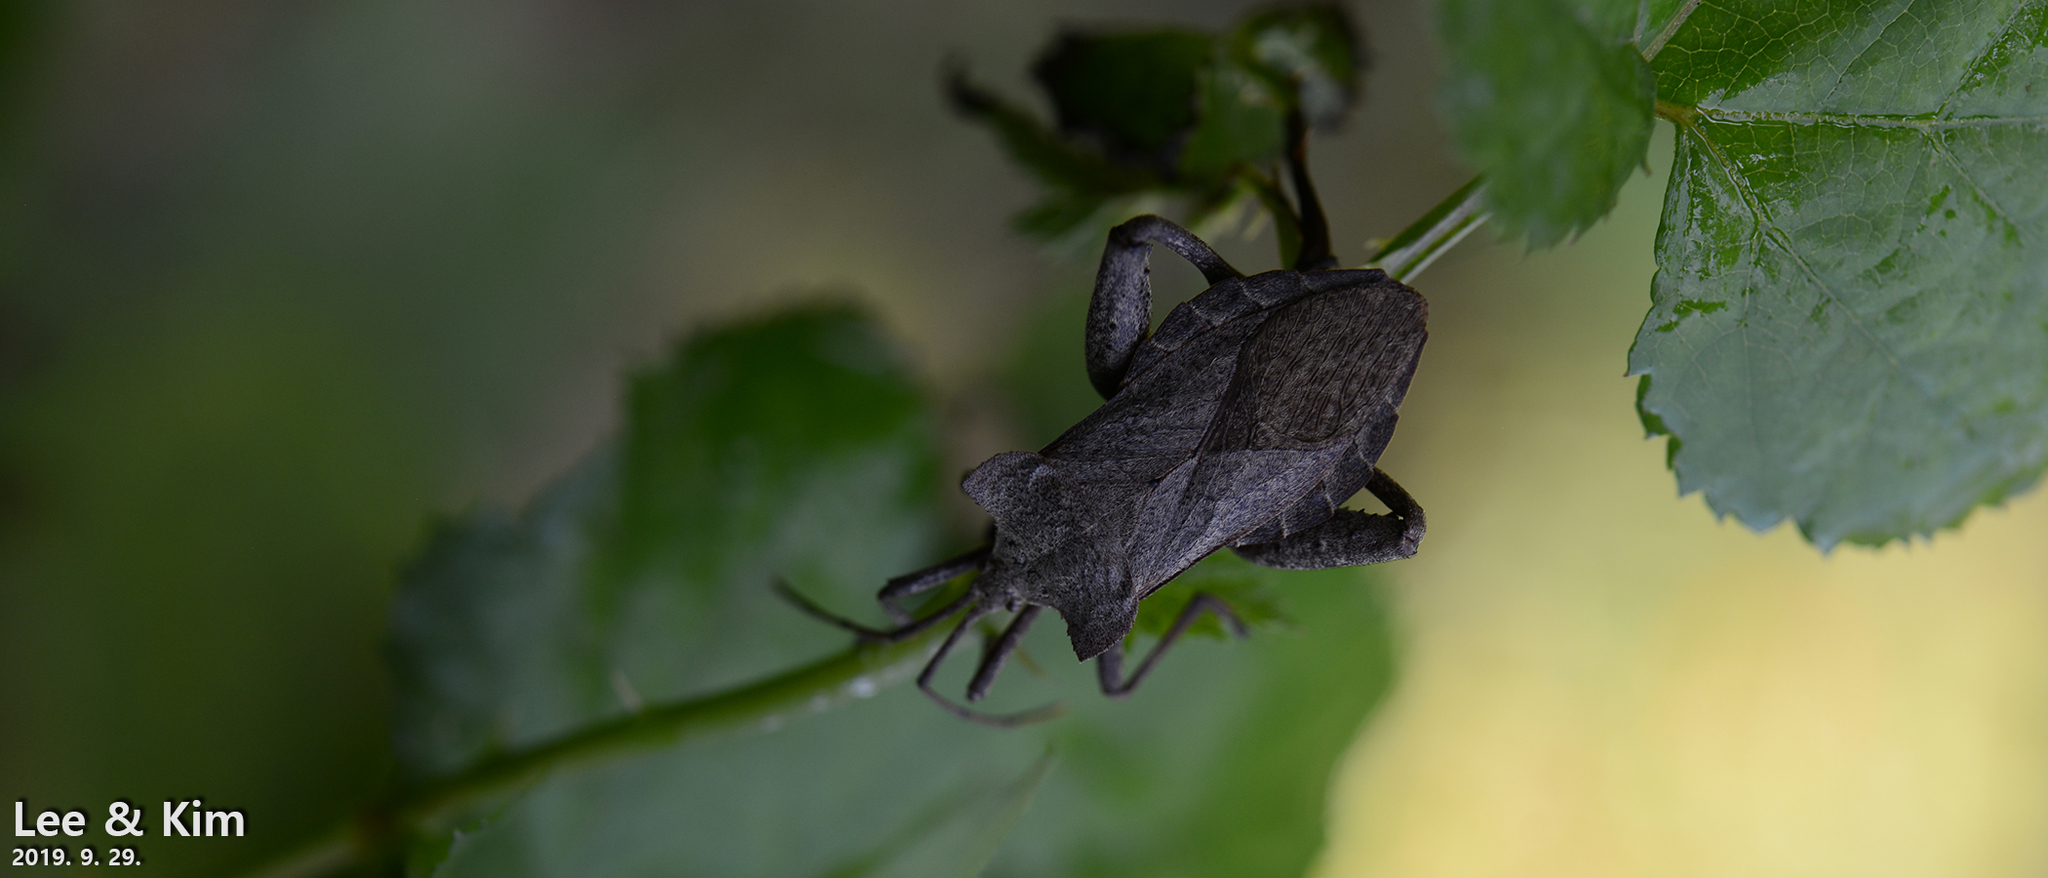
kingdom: Animalia
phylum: Arthropoda
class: Insecta
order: Hemiptera
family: Coreidae
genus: Molipteryx
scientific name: Molipteryx fuliginosa
